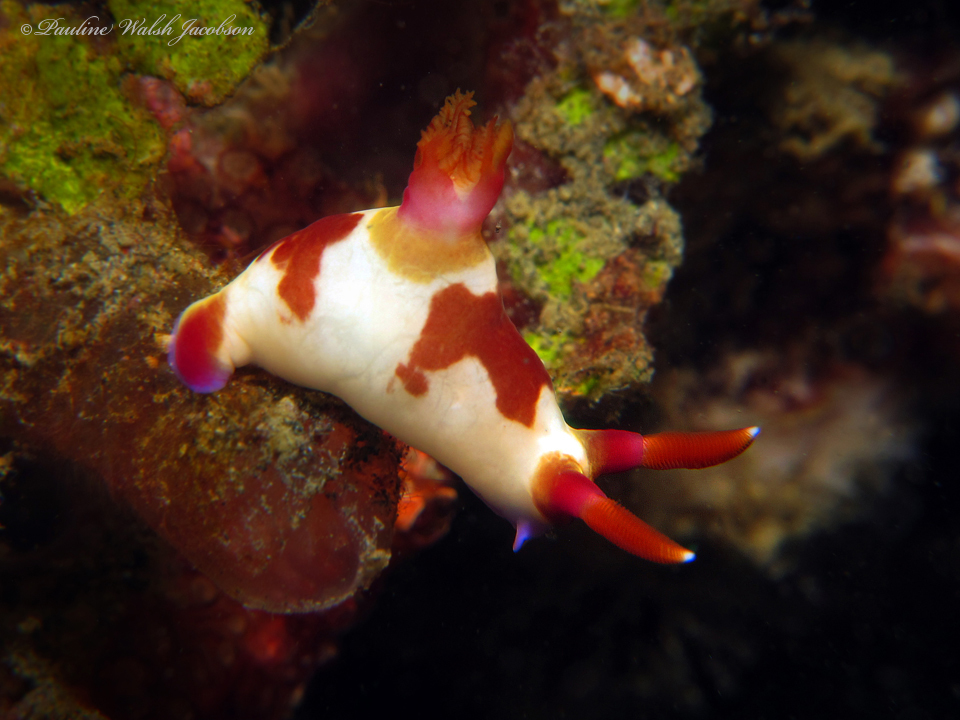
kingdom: Animalia
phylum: Mollusca
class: Gastropoda
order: Nudibranchia
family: Polyceridae
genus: Nembrotha
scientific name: Nembrotha chamberlaini
